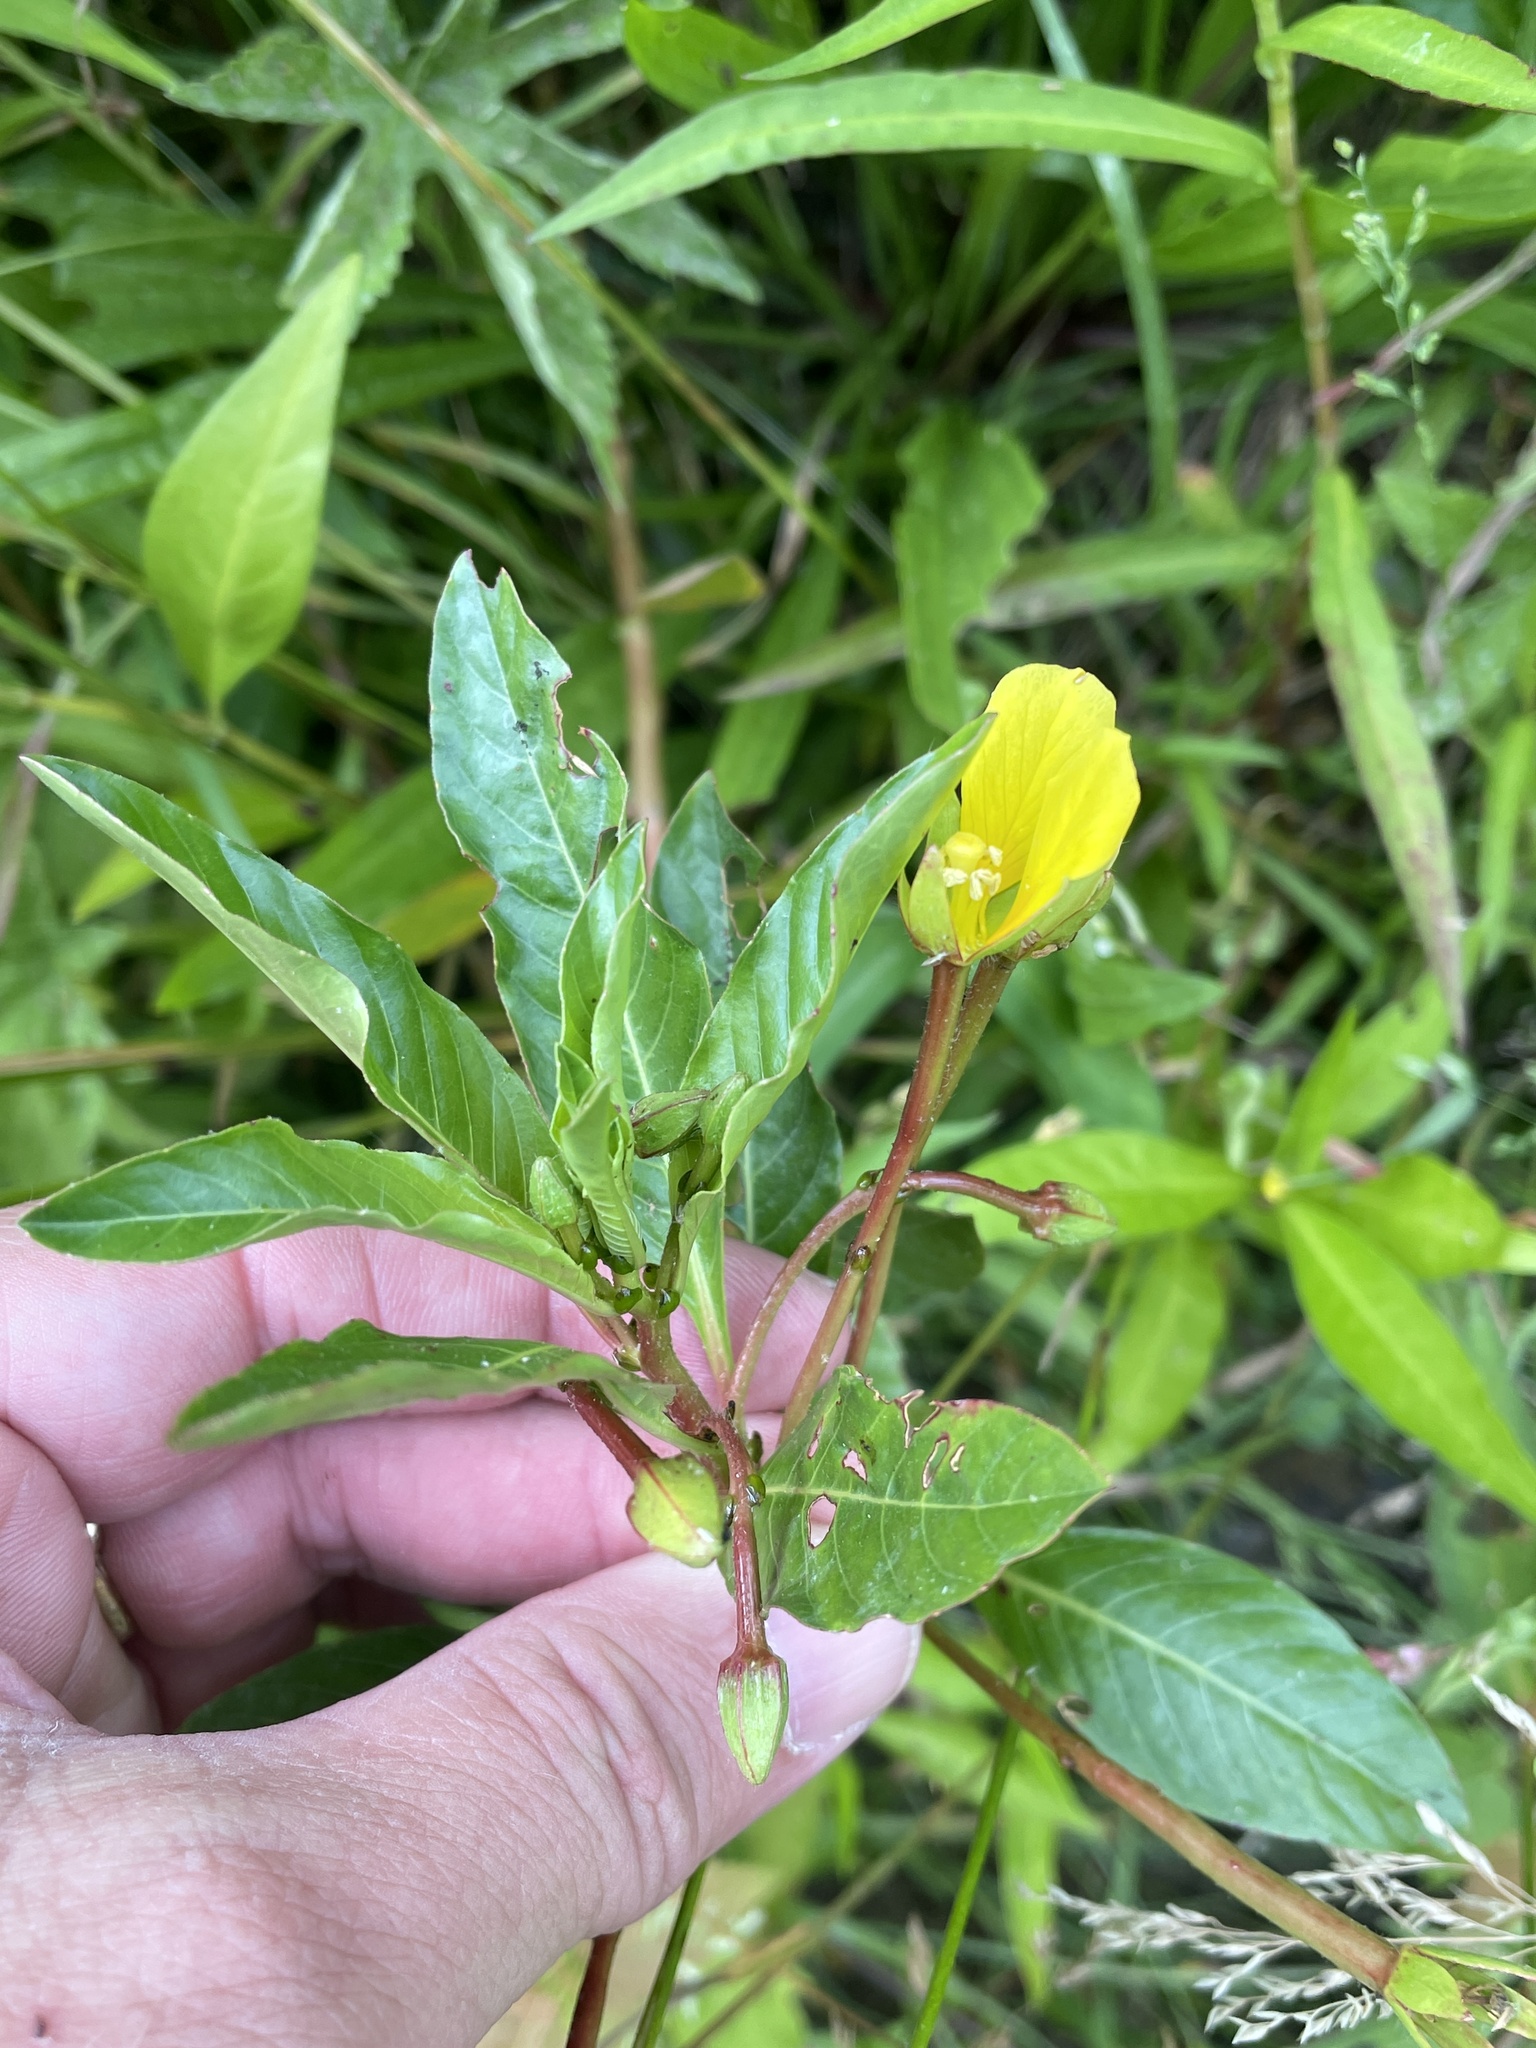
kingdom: Plantae
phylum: Tracheophyta
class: Magnoliopsida
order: Myrtales
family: Onagraceae
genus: Ludwigia
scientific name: Ludwigia peploides
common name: Floating primrose-willow
